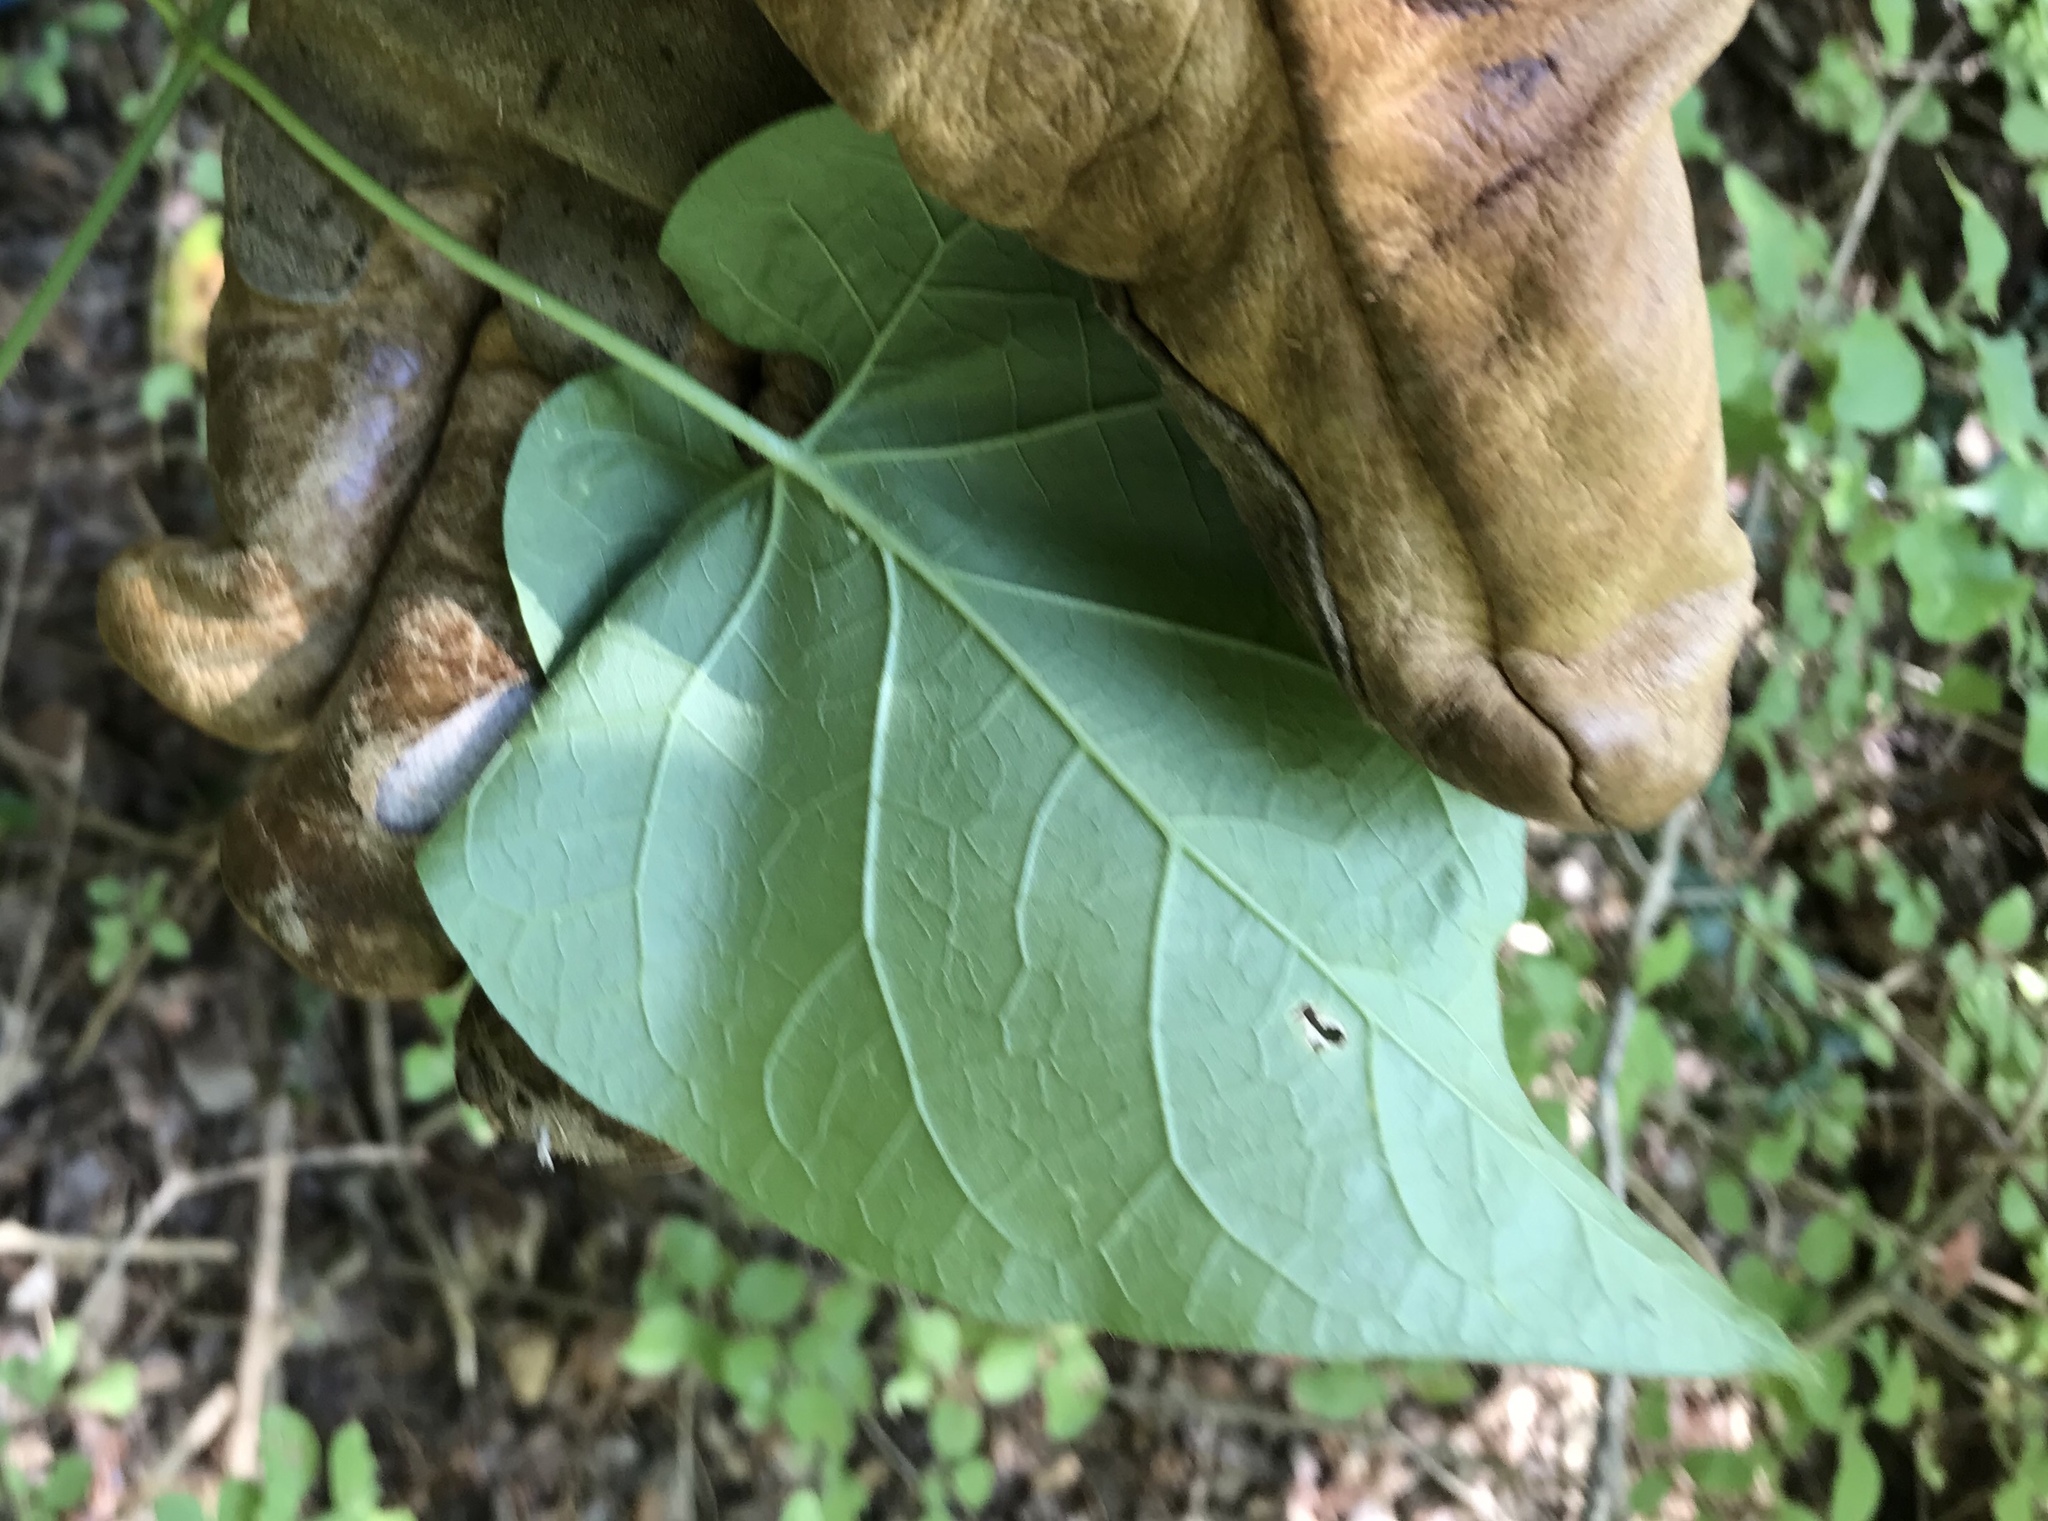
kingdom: Plantae
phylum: Tracheophyta
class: Magnoliopsida
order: Gentianales
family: Apocynaceae
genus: Dictyanthus
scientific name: Dictyanthus reticulatus
